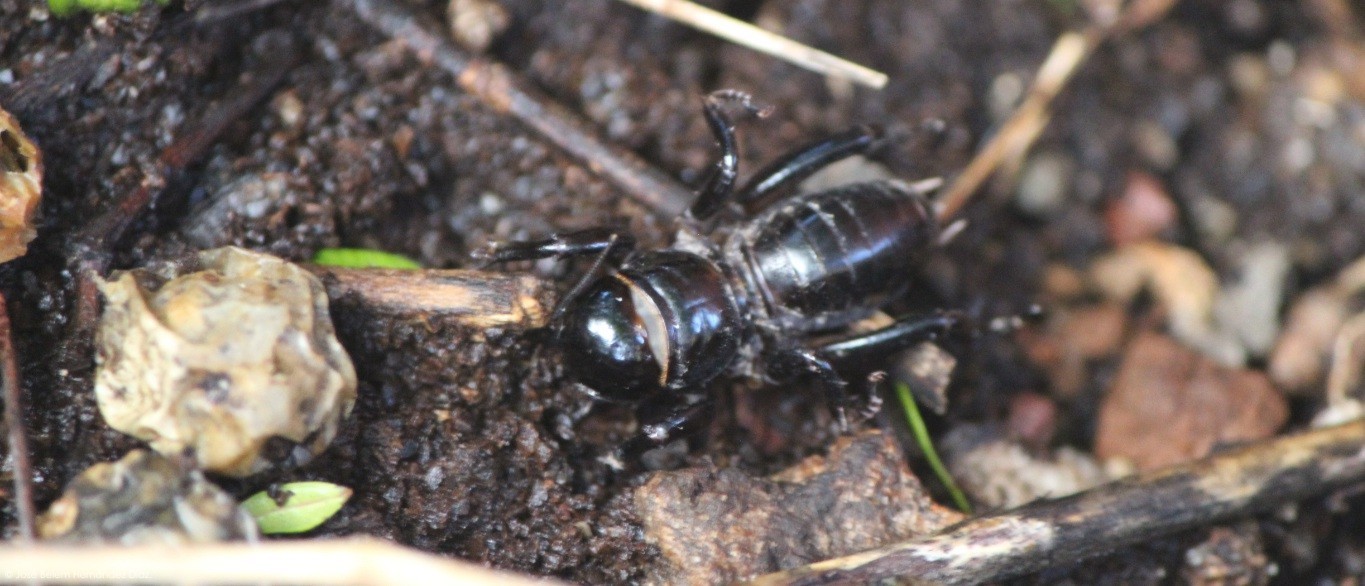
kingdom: Animalia
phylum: Arthropoda
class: Insecta
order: Orthoptera
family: Stenopelmatidae
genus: Stenopelmatus
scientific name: Stenopelmatus minor
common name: Small jerusalem cricket
